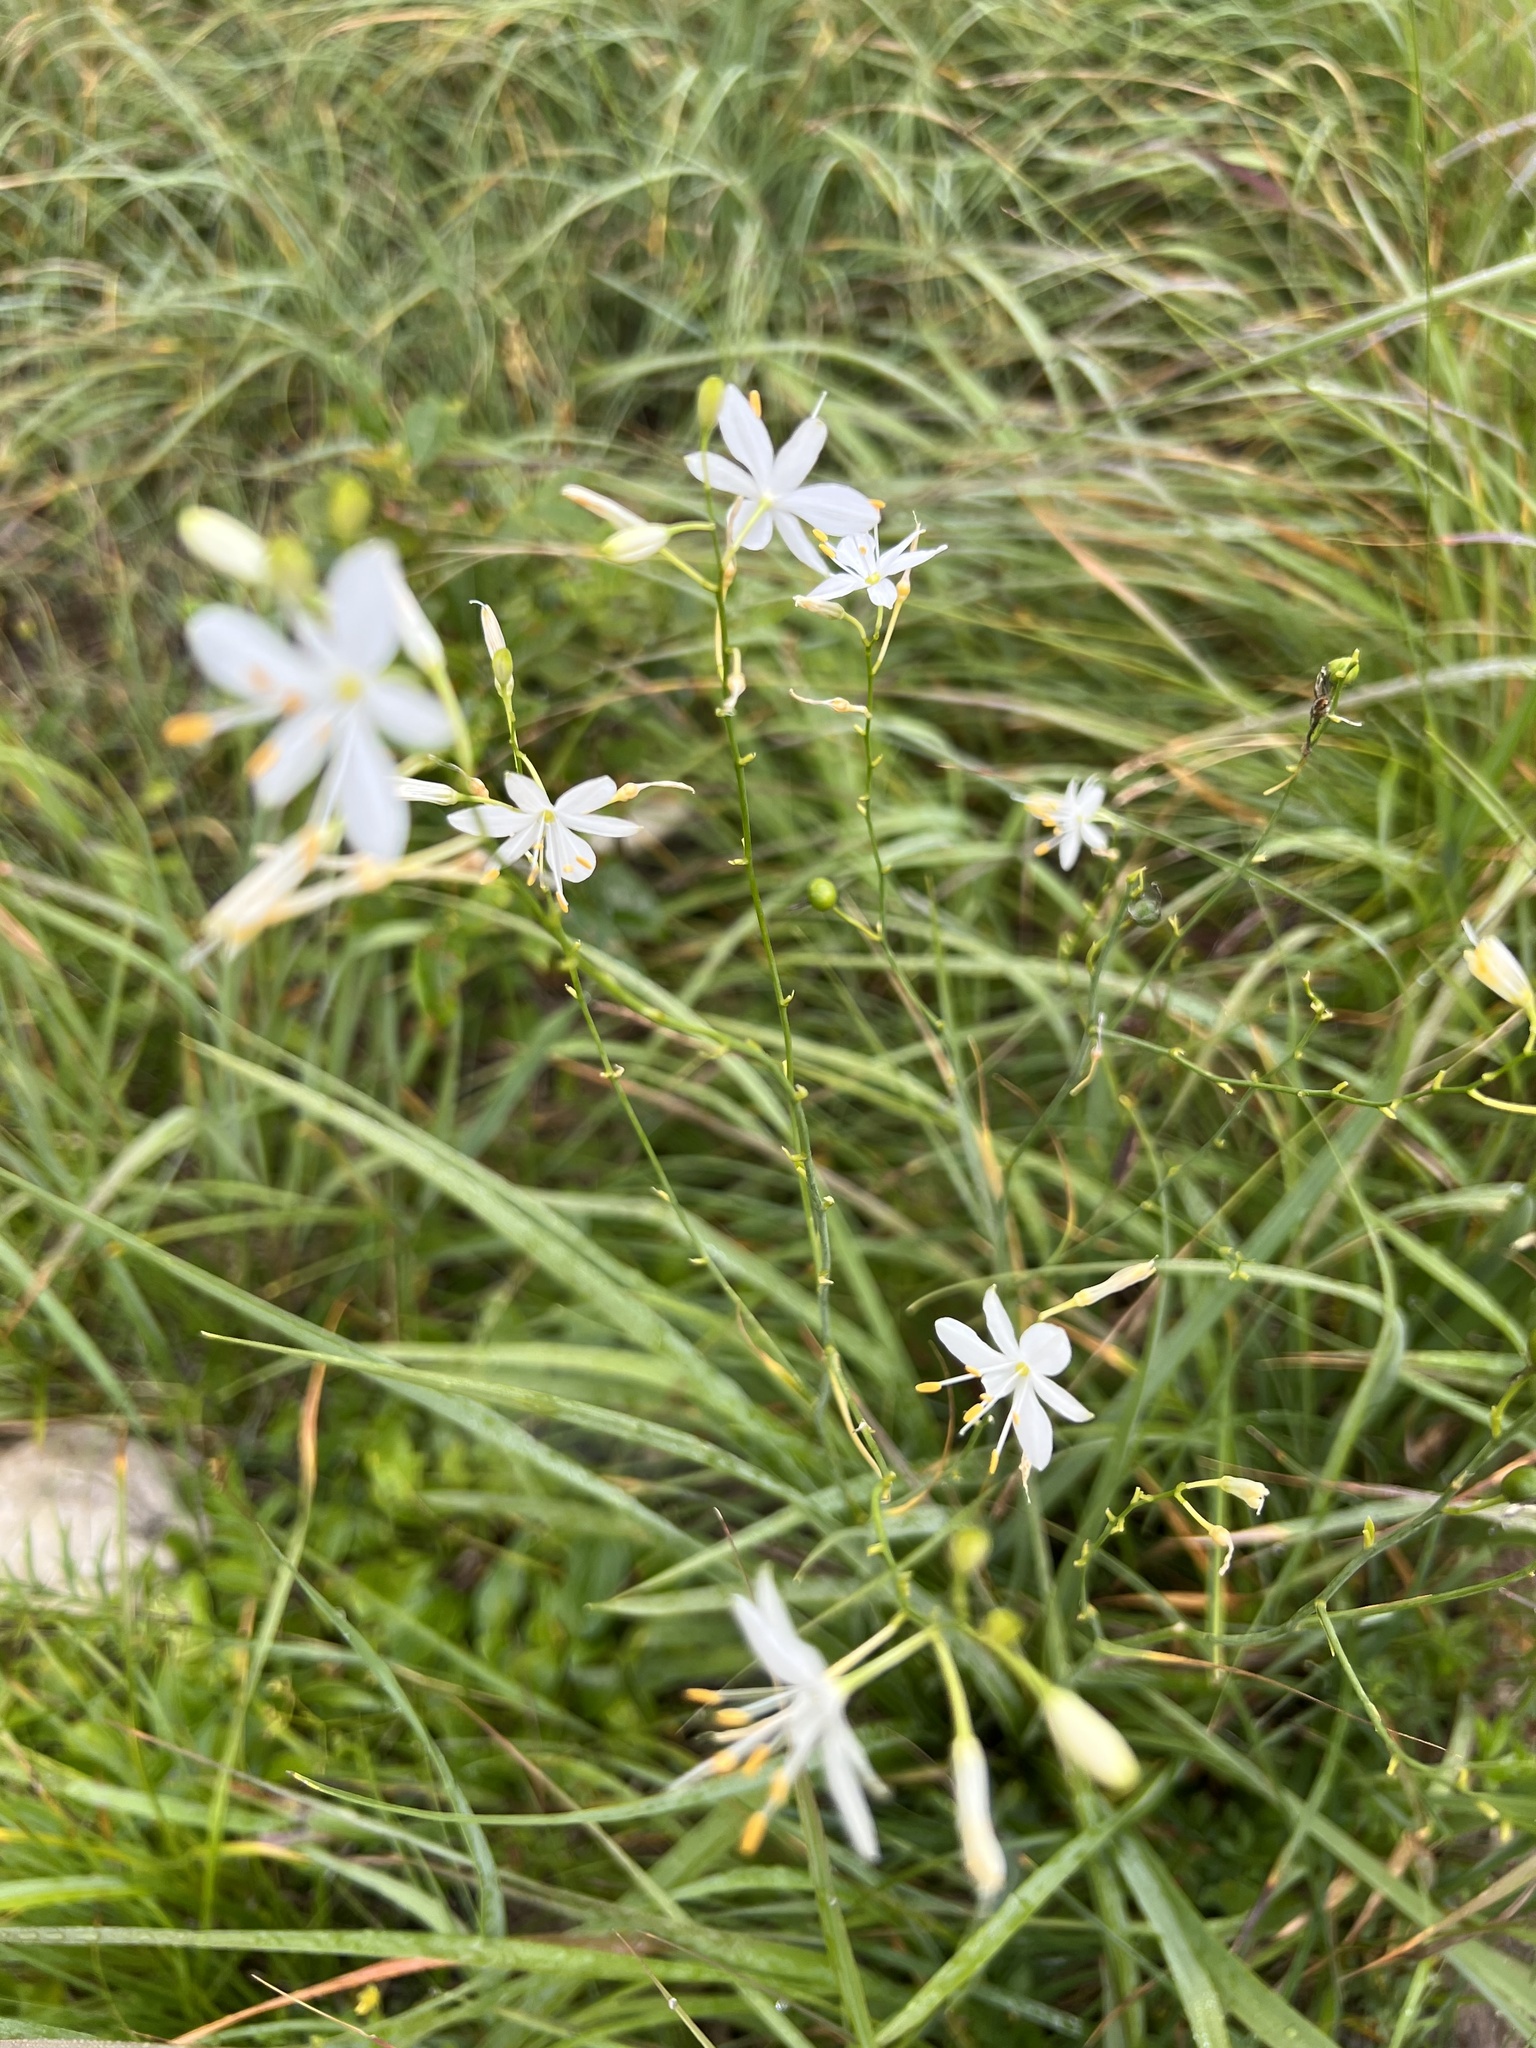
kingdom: Plantae
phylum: Tracheophyta
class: Liliopsida
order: Asparagales
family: Asparagaceae
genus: Anthericum
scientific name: Anthericum ramosum
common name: Branched st. bernard's-lily
